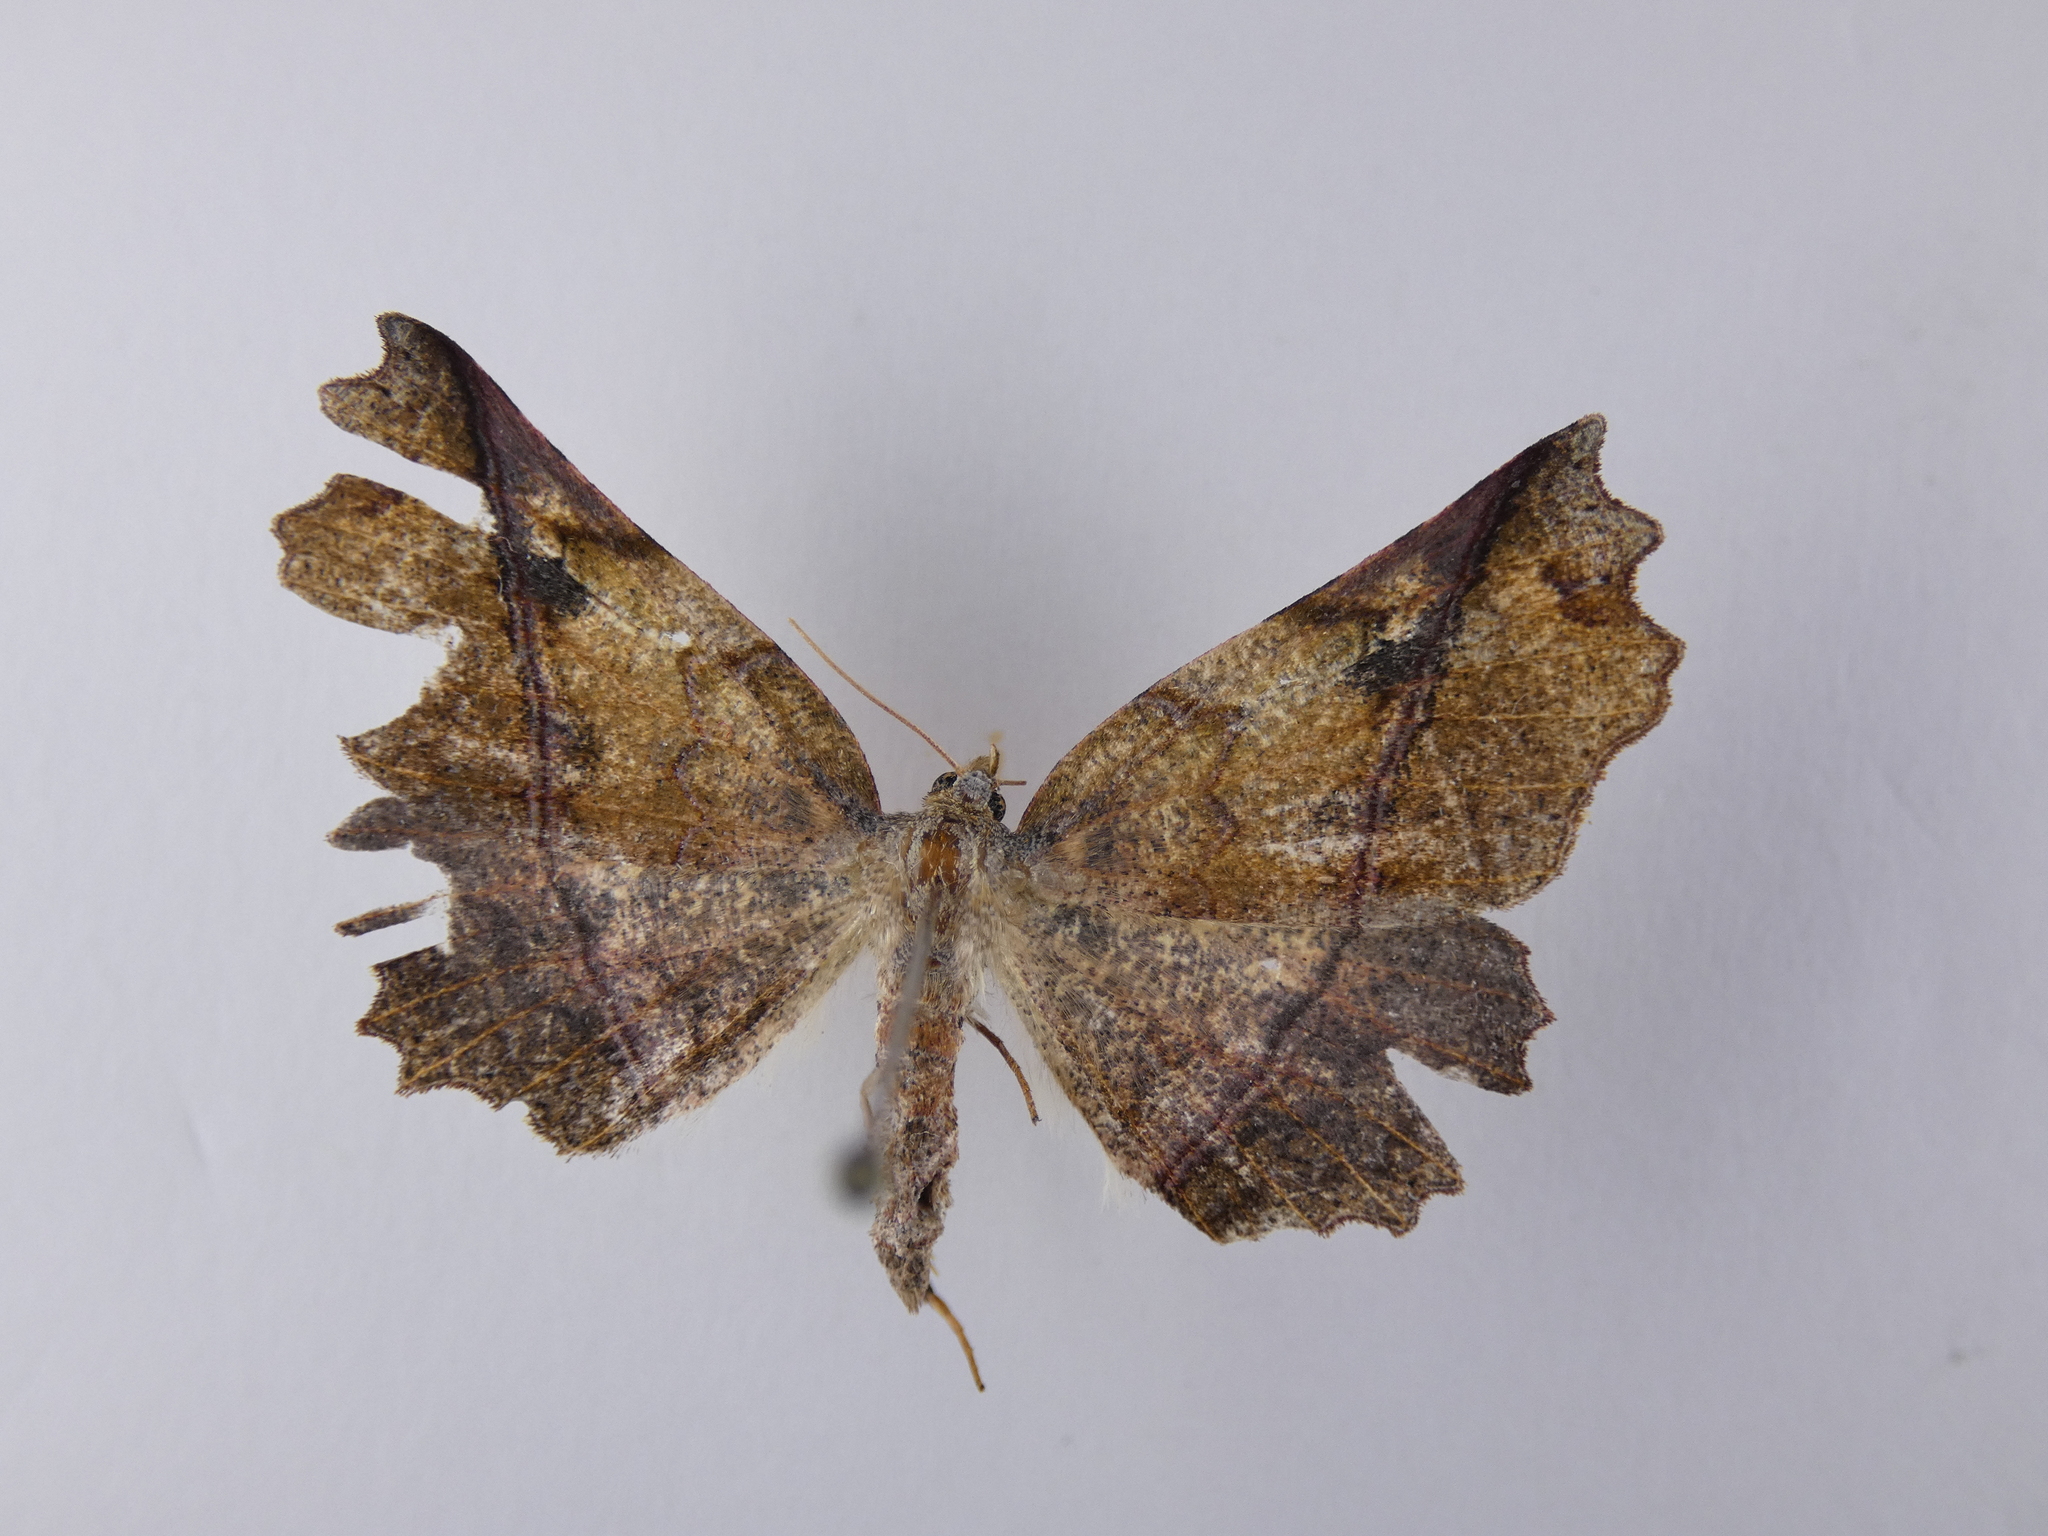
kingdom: Animalia
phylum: Arthropoda
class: Insecta
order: Lepidoptera
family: Geometridae
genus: Ischalis
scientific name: Ischalis gallaria
